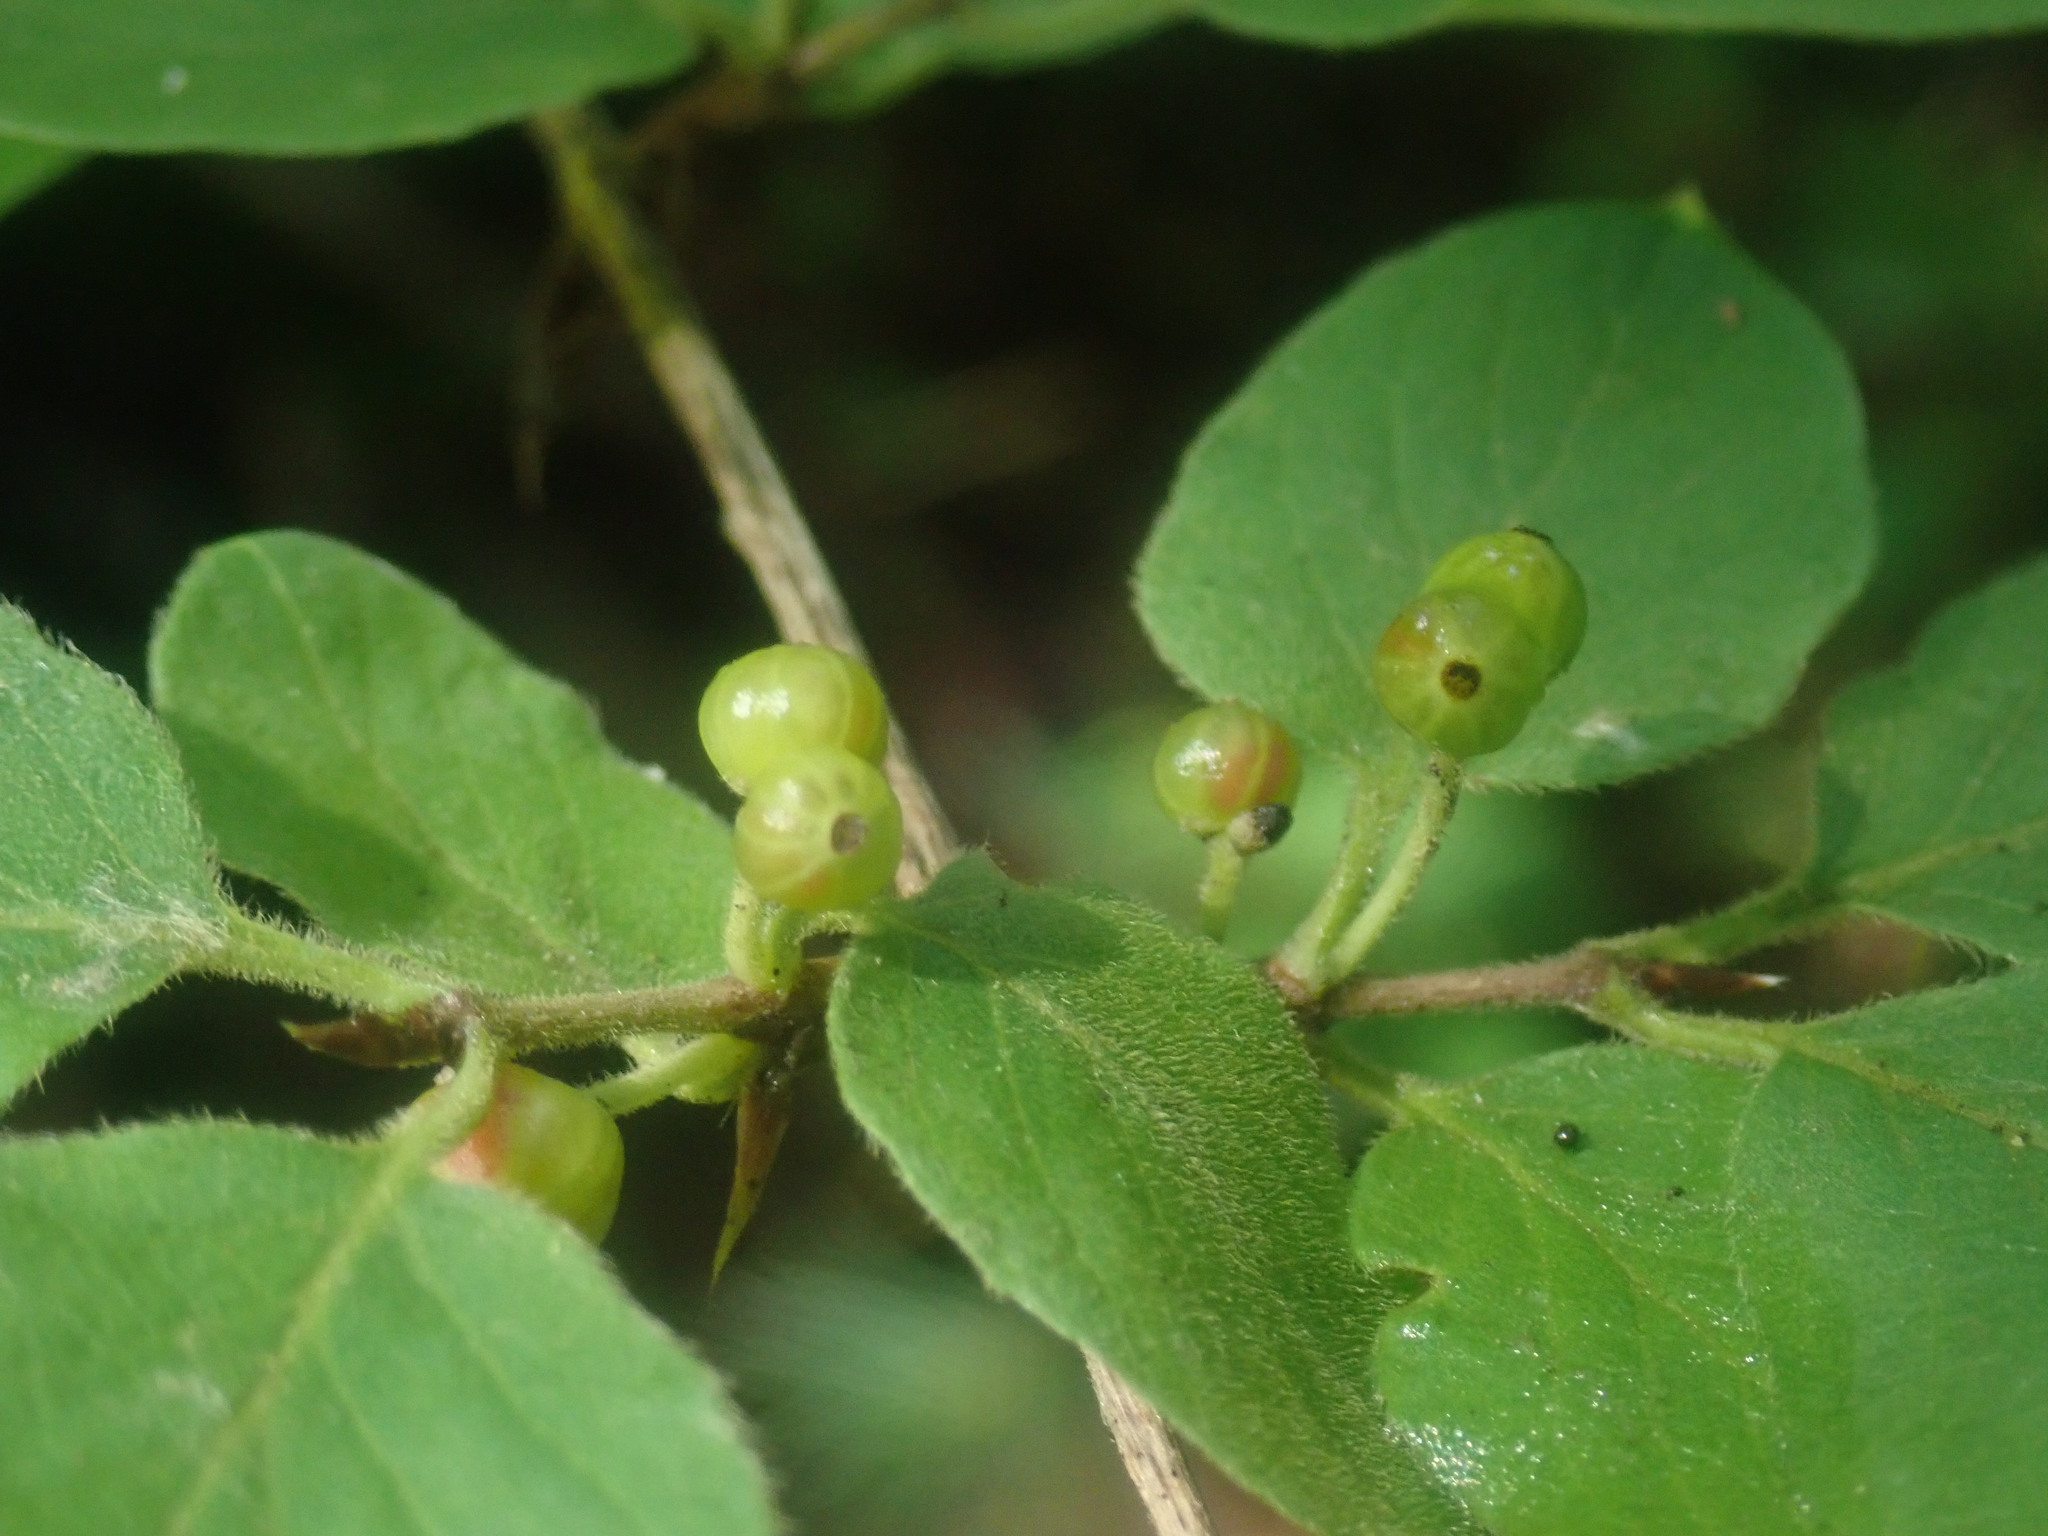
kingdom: Plantae
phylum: Tracheophyta
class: Magnoliopsida
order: Dipsacales
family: Caprifoliaceae
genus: Lonicera
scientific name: Lonicera xylosteum
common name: Fly honeysuckle
